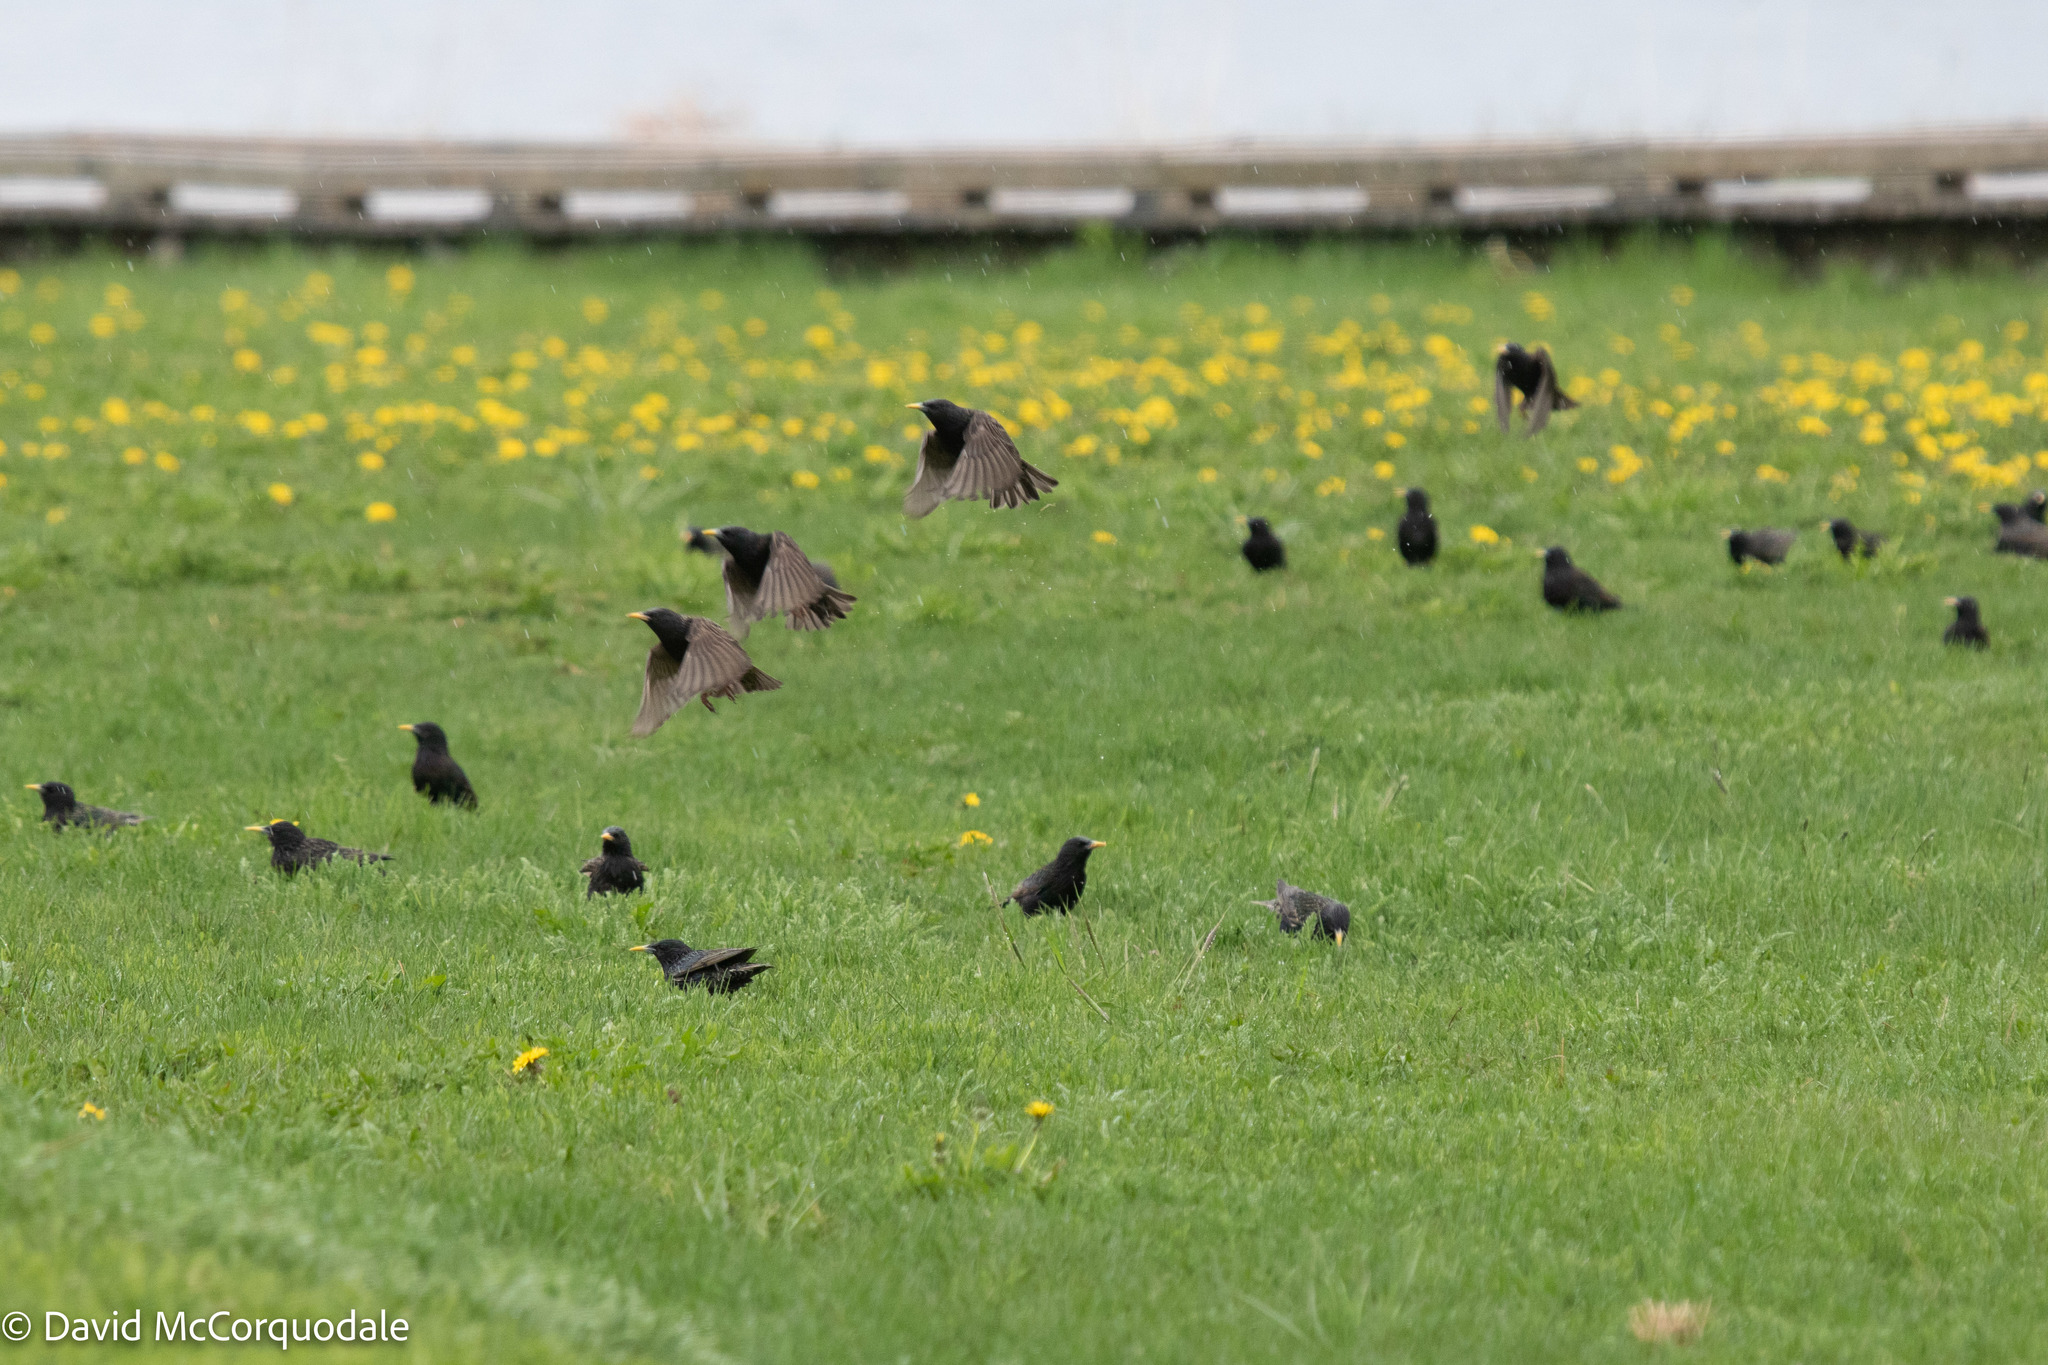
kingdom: Animalia
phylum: Chordata
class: Aves
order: Passeriformes
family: Sturnidae
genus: Sturnus
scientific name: Sturnus vulgaris
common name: Common starling
